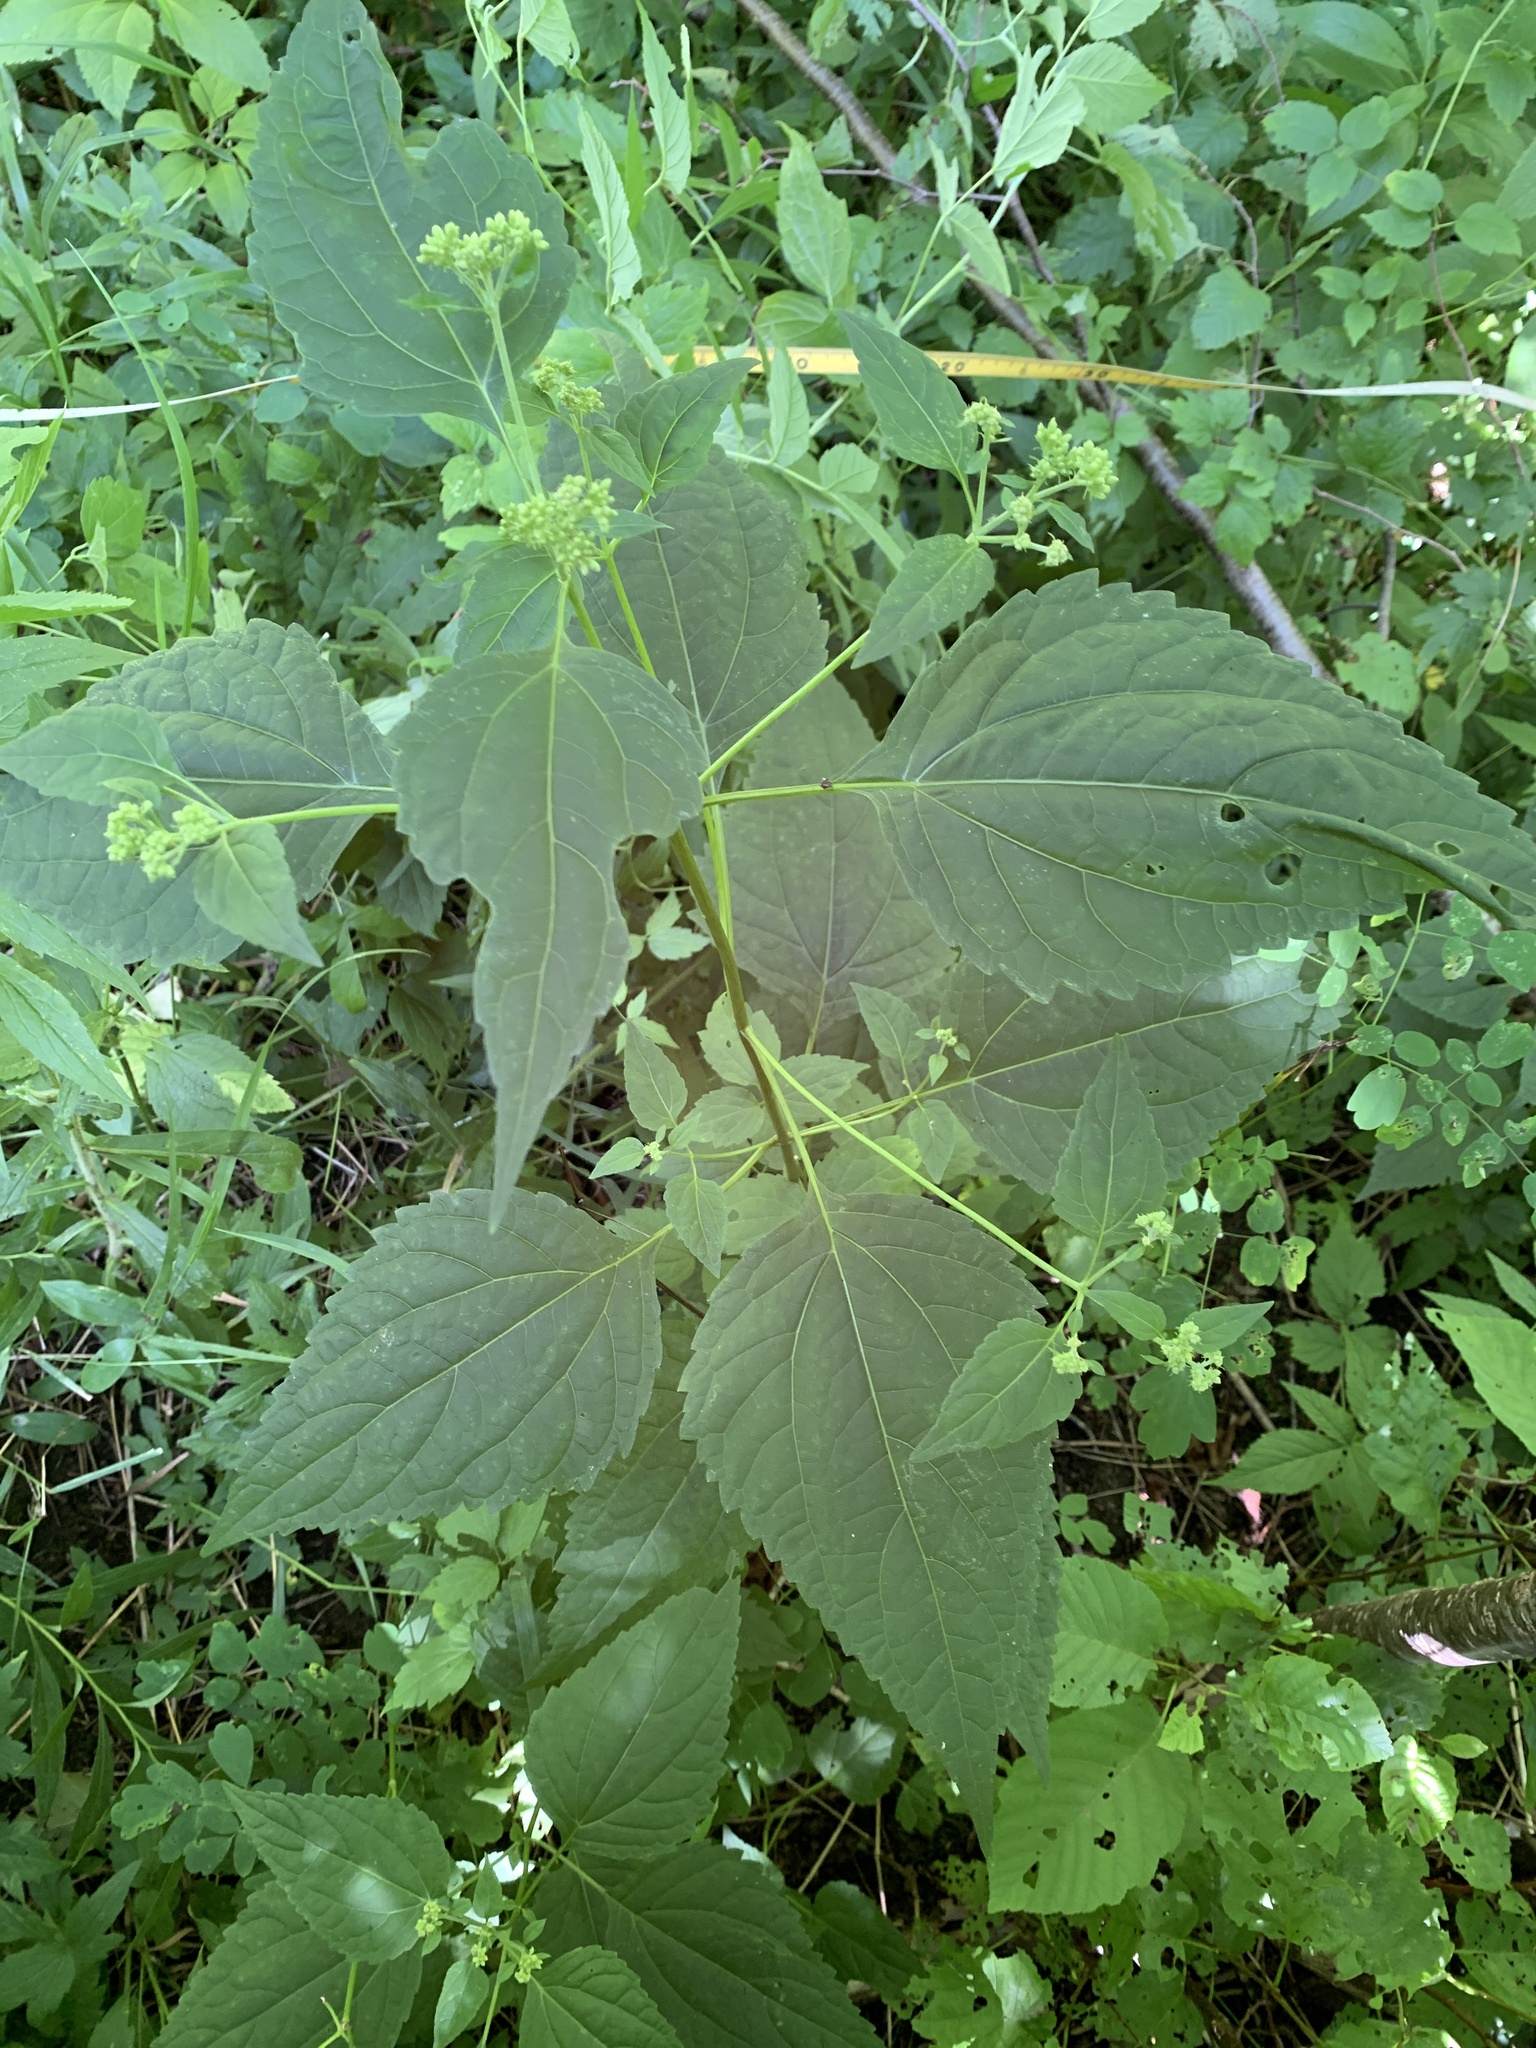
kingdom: Plantae
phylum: Tracheophyta
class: Magnoliopsida
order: Asterales
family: Asteraceae
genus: Ageratina
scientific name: Ageratina altissima
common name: White snakeroot
